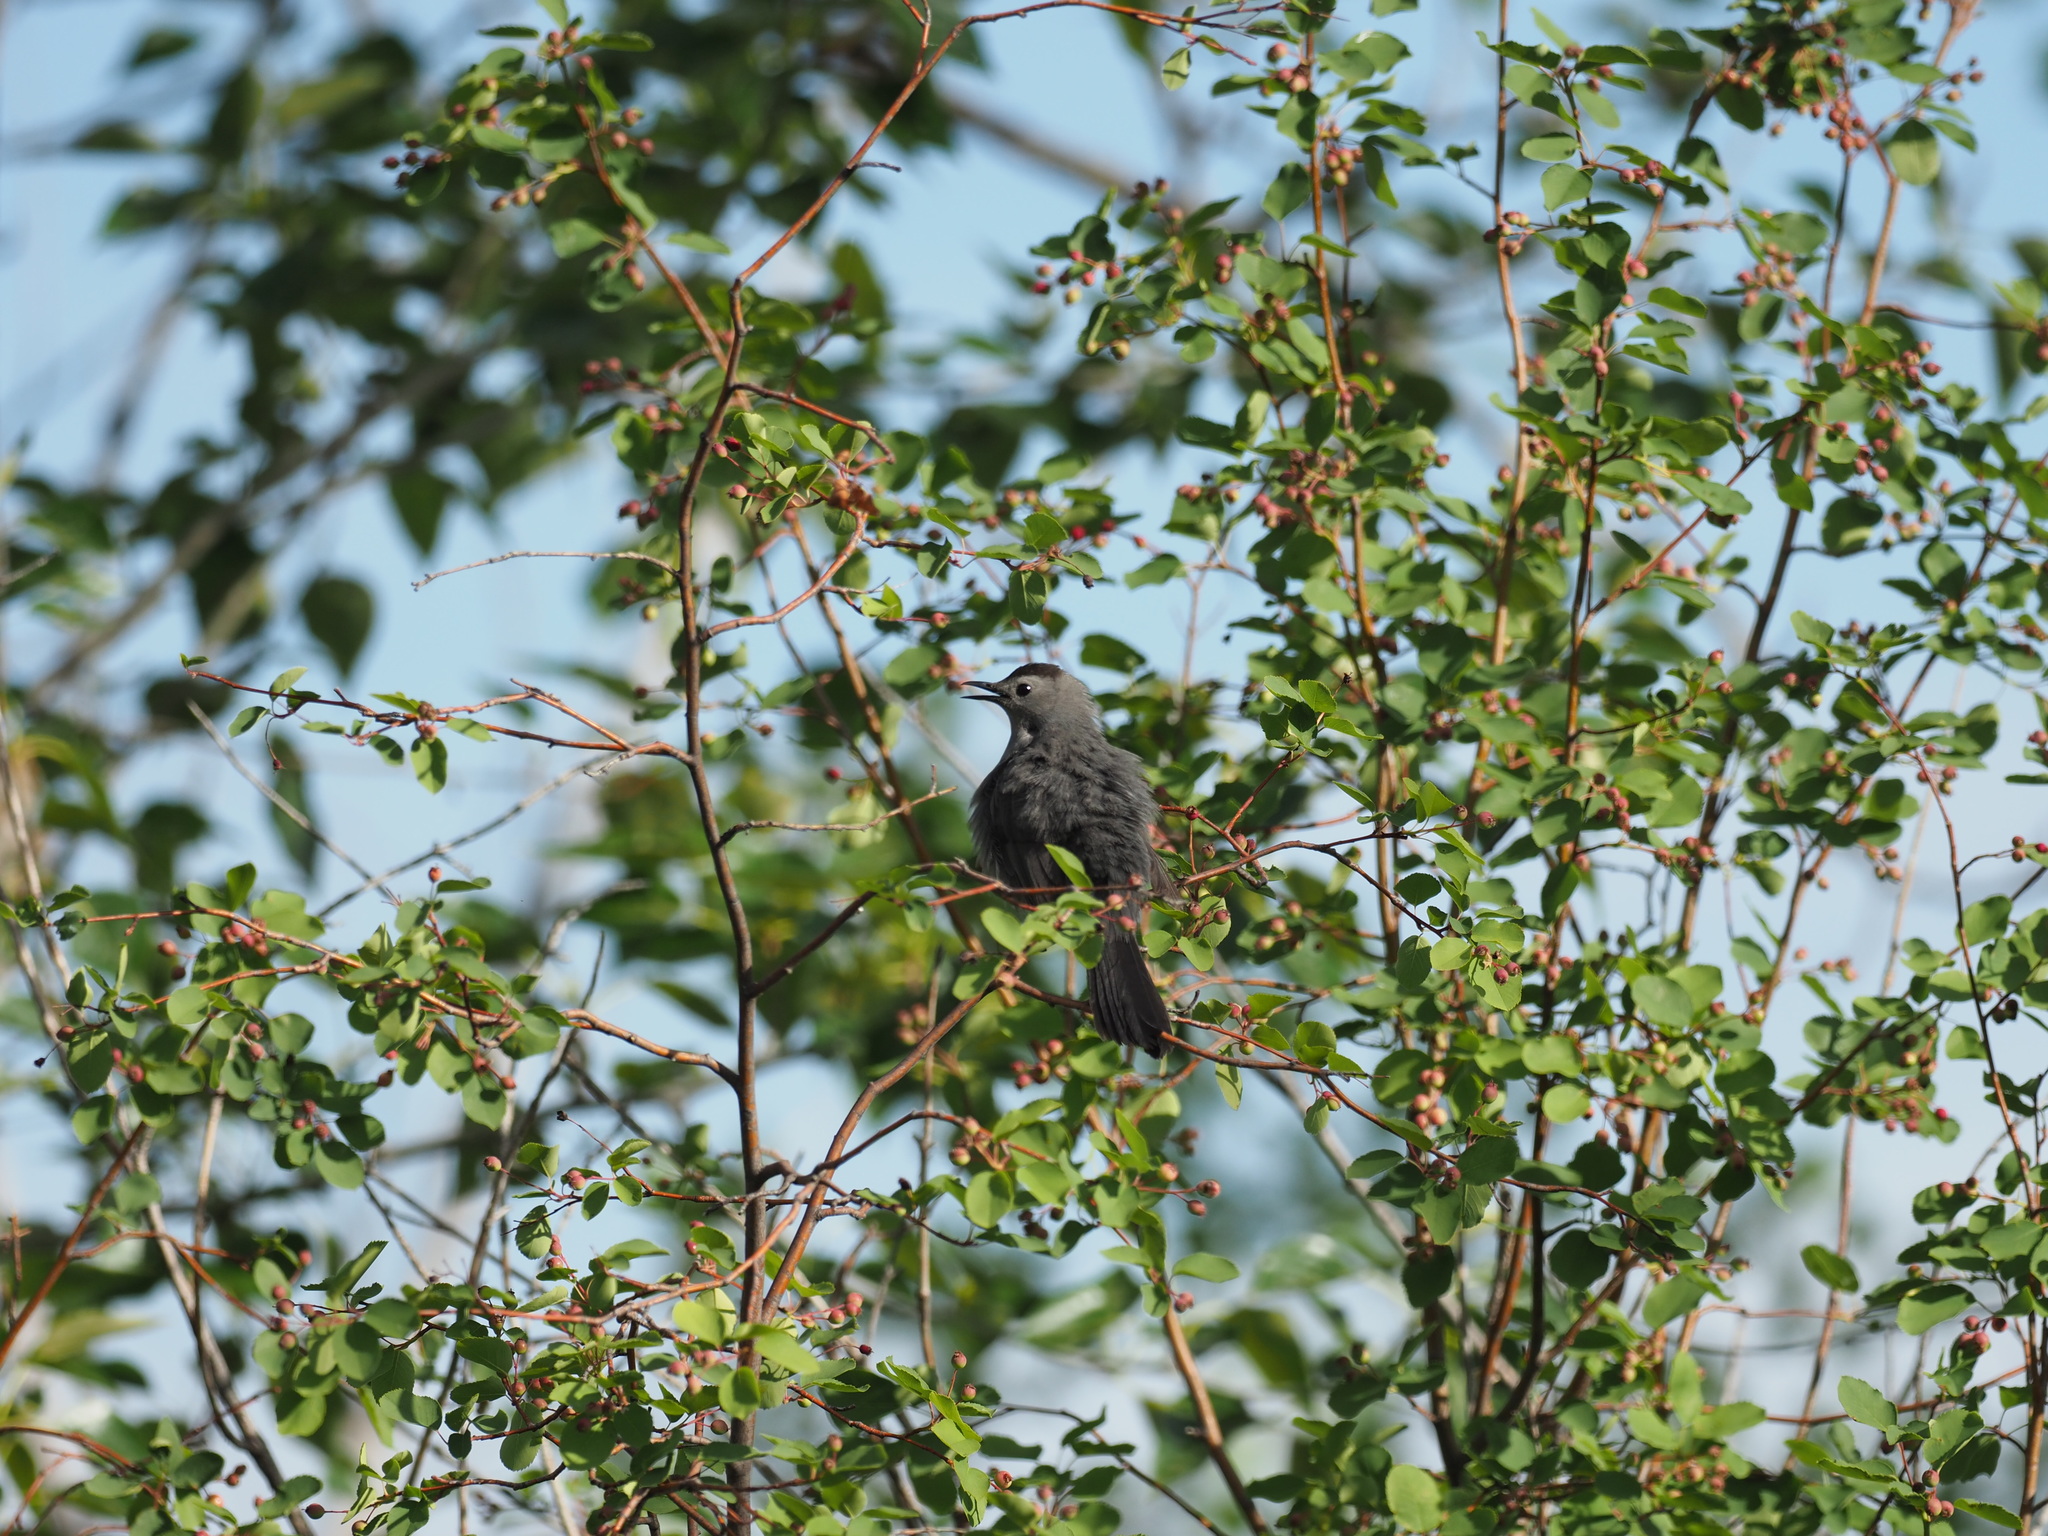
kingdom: Animalia
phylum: Chordata
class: Aves
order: Passeriformes
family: Mimidae
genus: Dumetella
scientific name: Dumetella carolinensis
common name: Gray catbird
